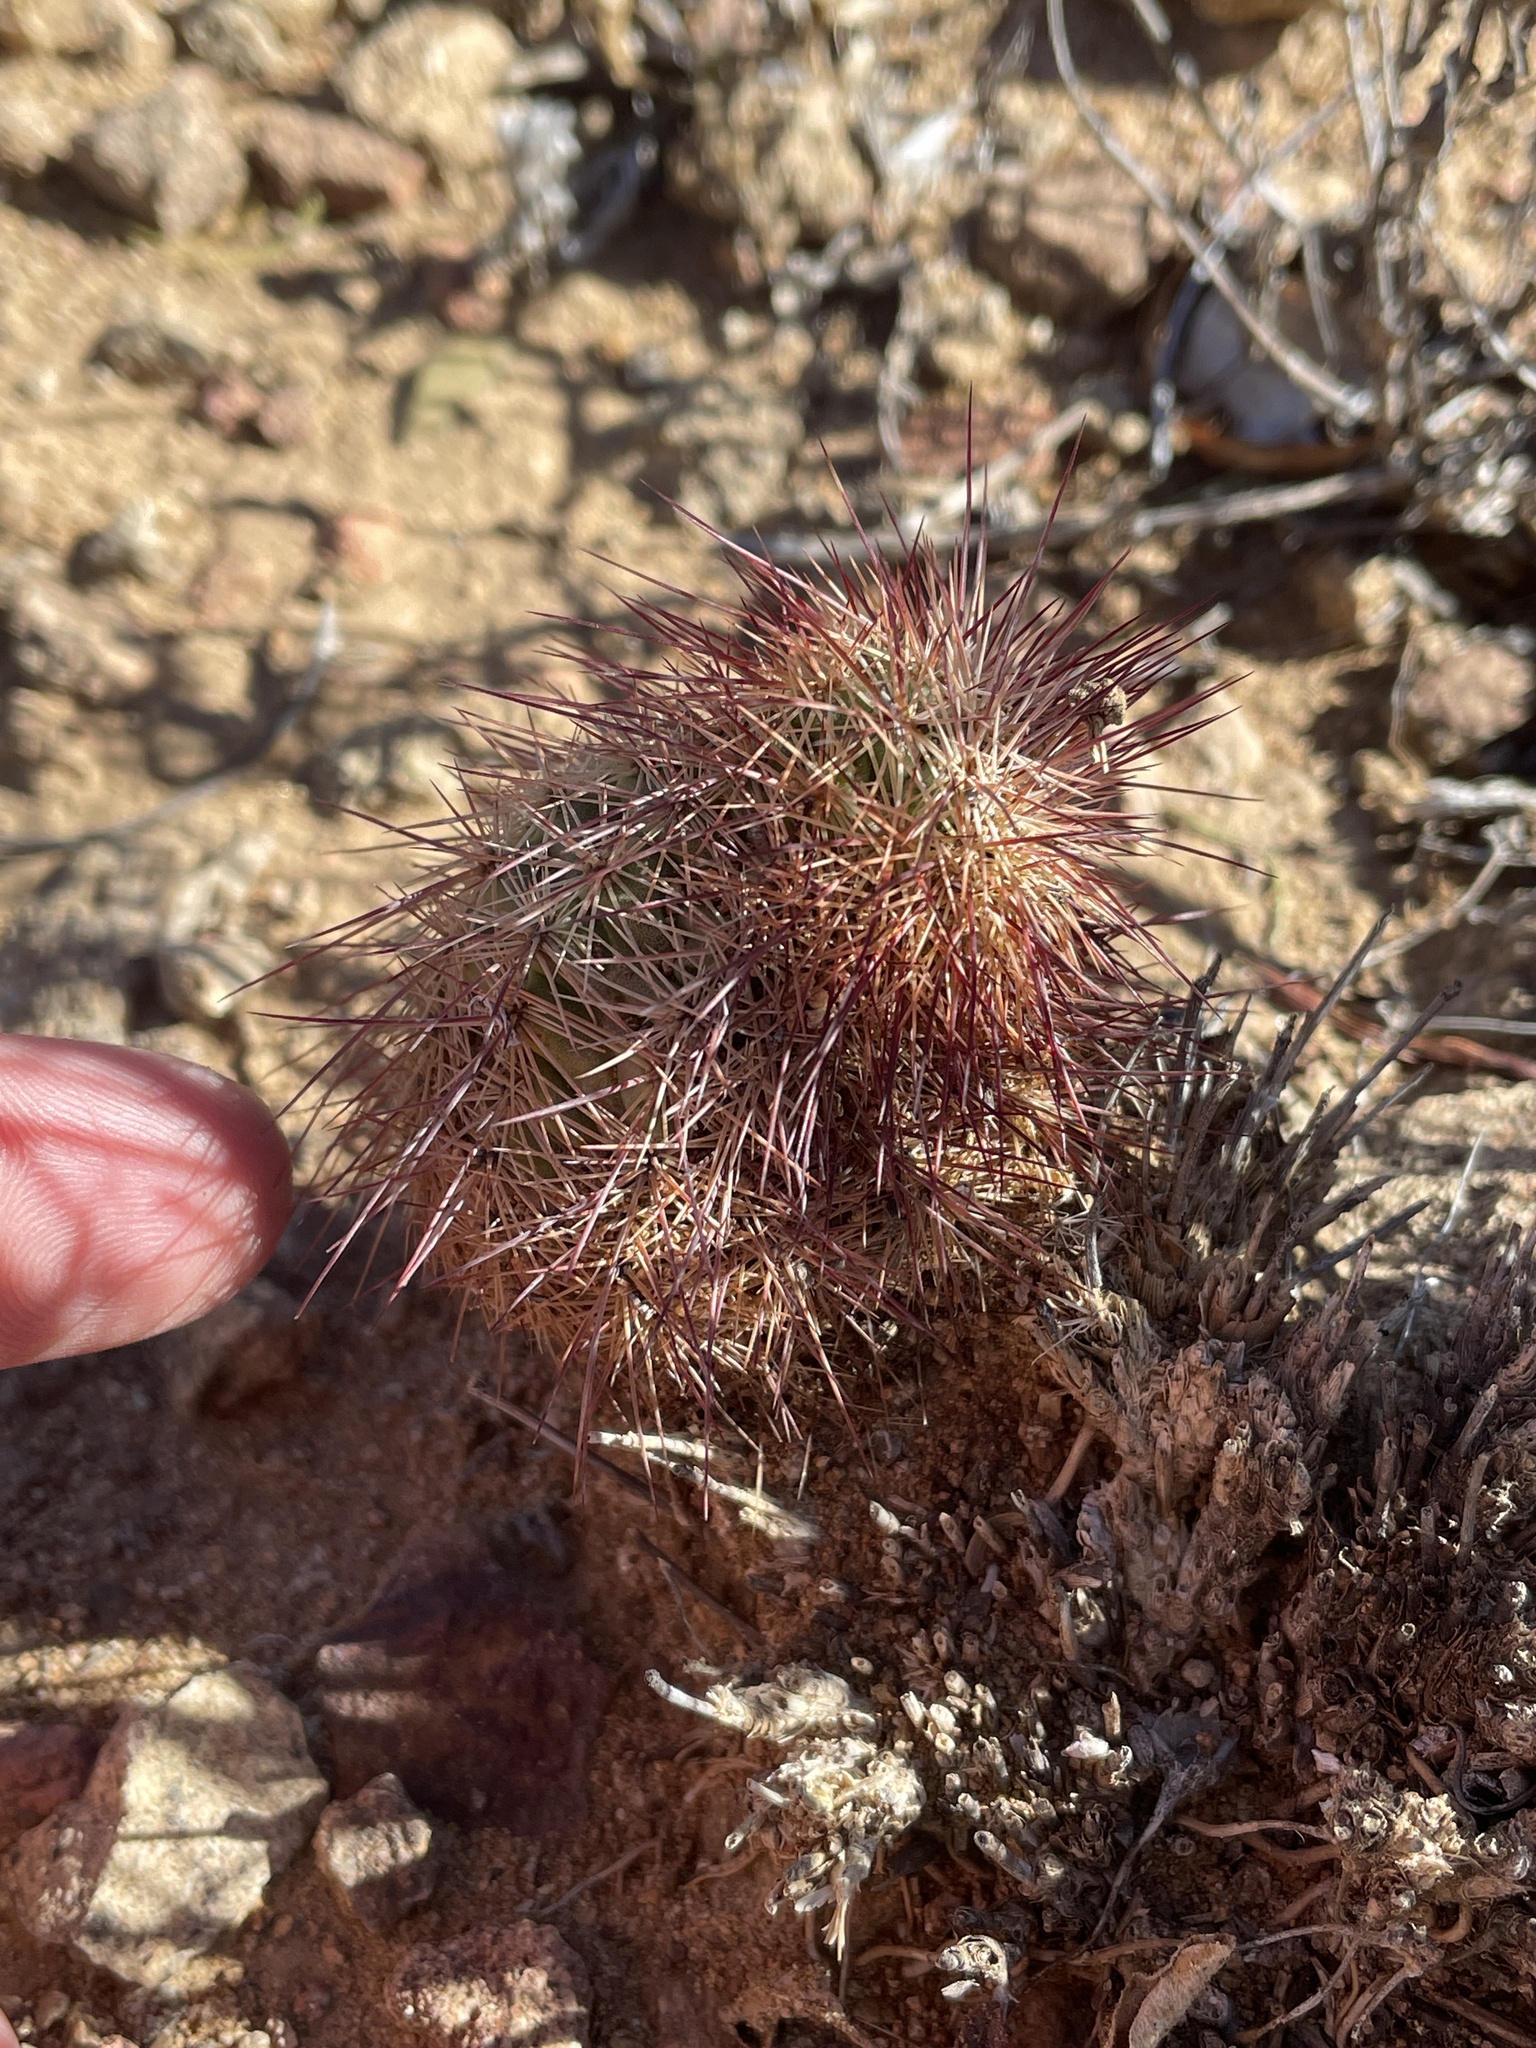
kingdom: Plantae
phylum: Tracheophyta
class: Magnoliopsida
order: Caryophyllales
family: Cactaceae
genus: Echinocereus
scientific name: Echinocereus russanthus
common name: Brownspine hedgehog cactus
